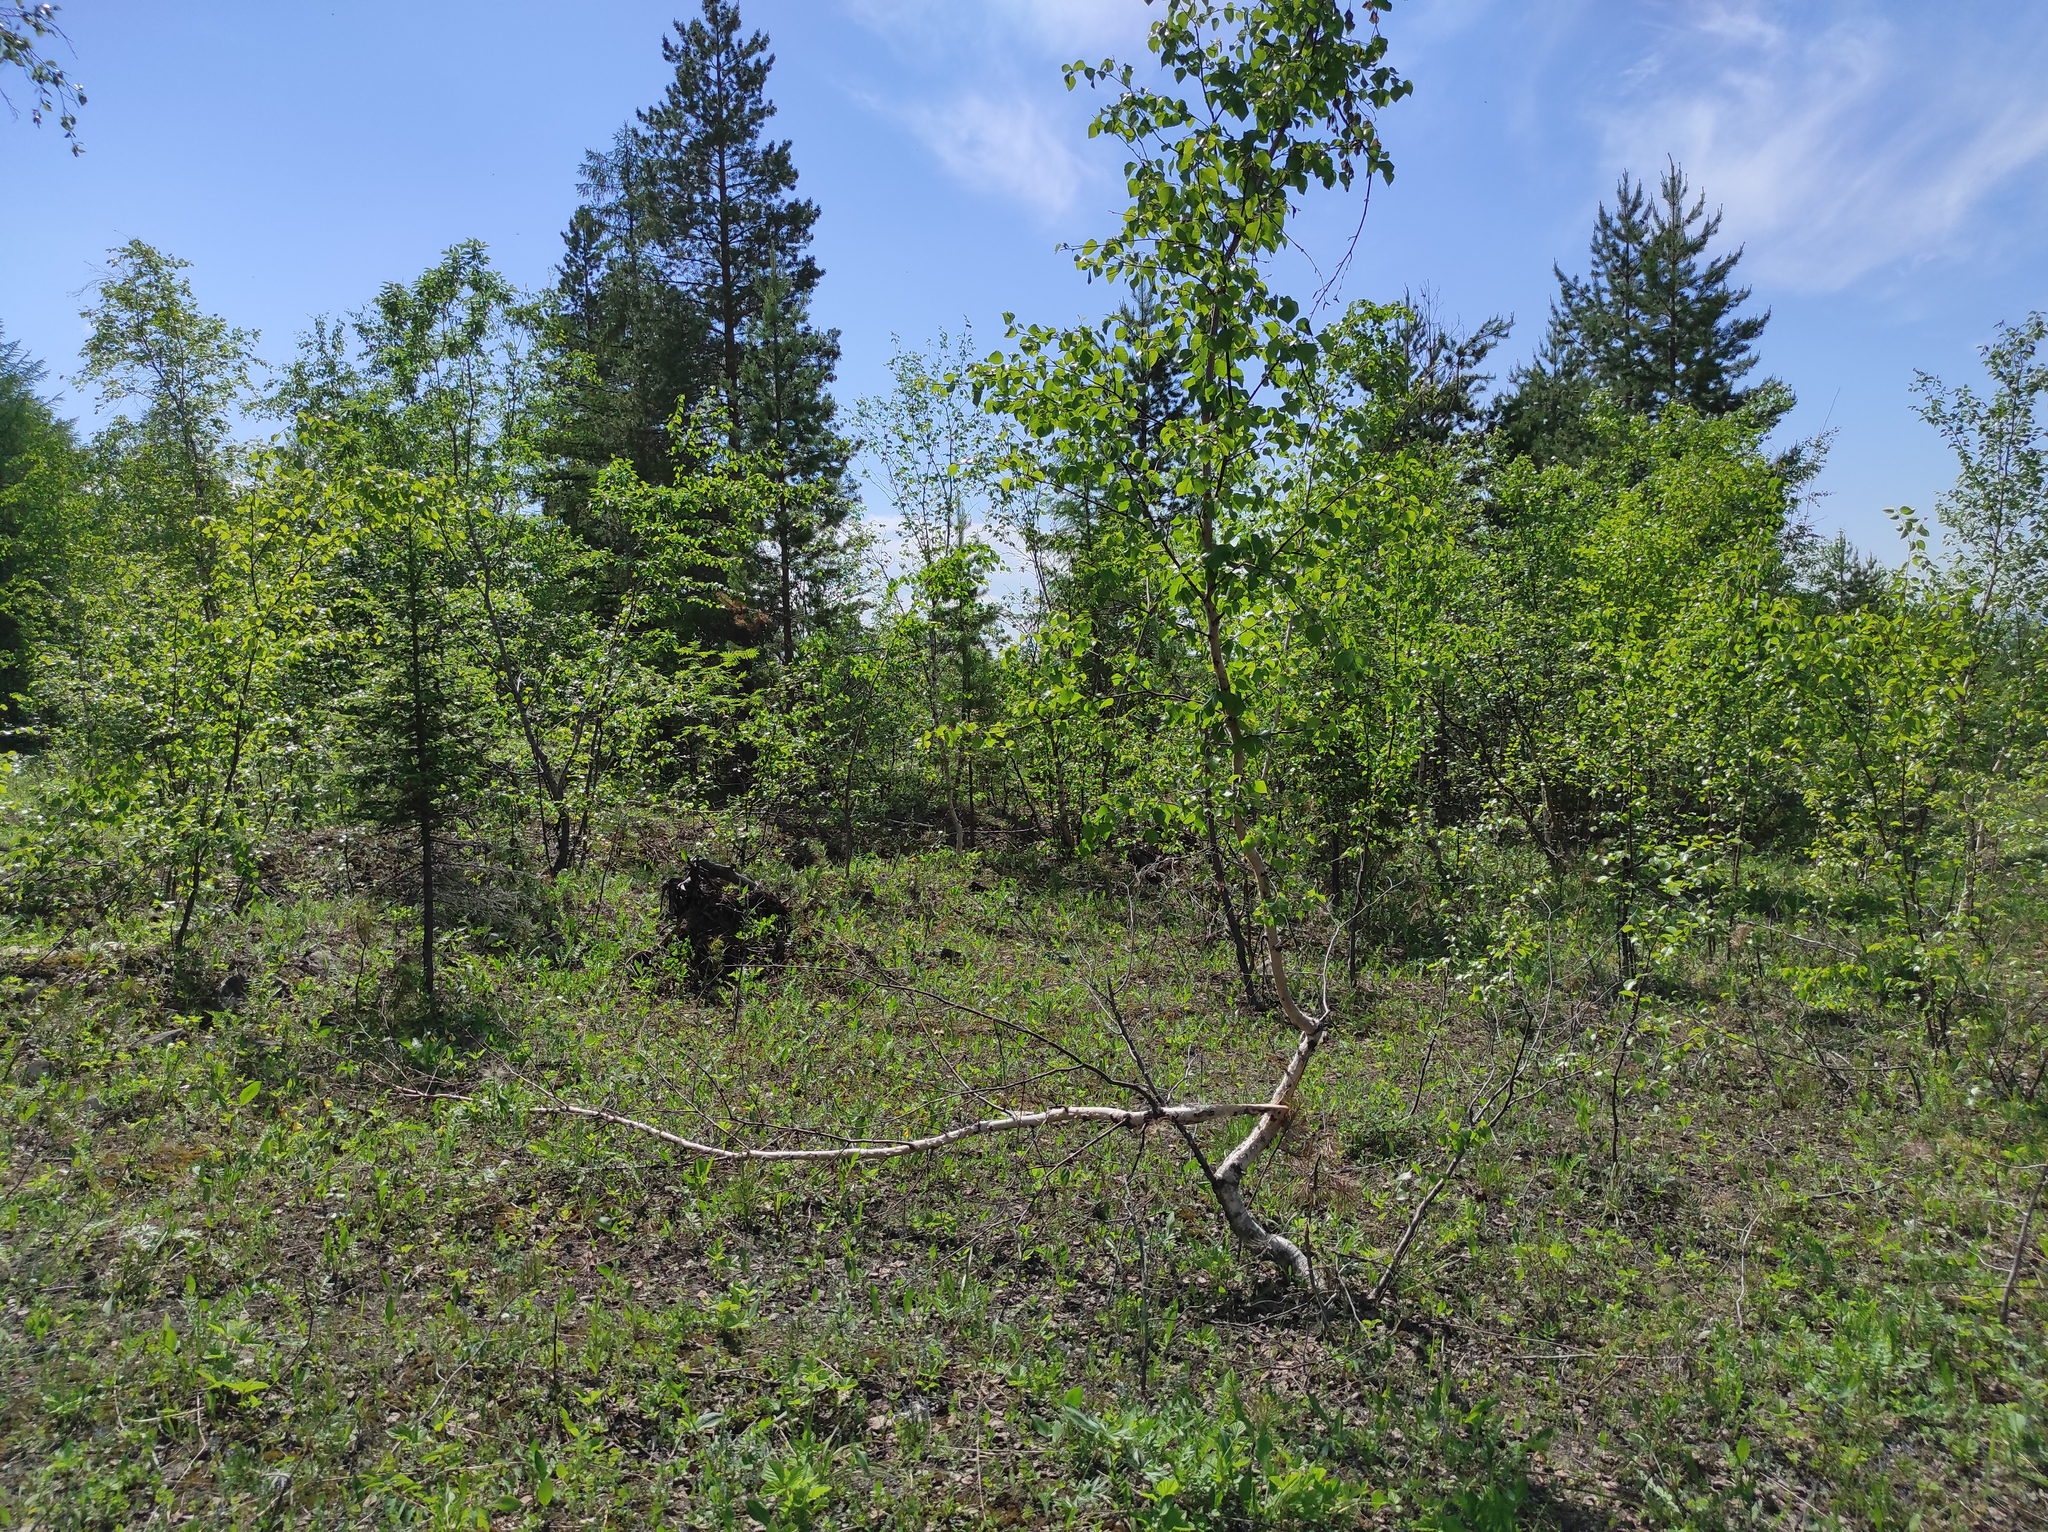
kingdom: Plantae
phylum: Tracheophyta
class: Pinopsida
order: Pinales
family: Pinaceae
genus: Picea
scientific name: Picea obovata
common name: Siberian spruce
